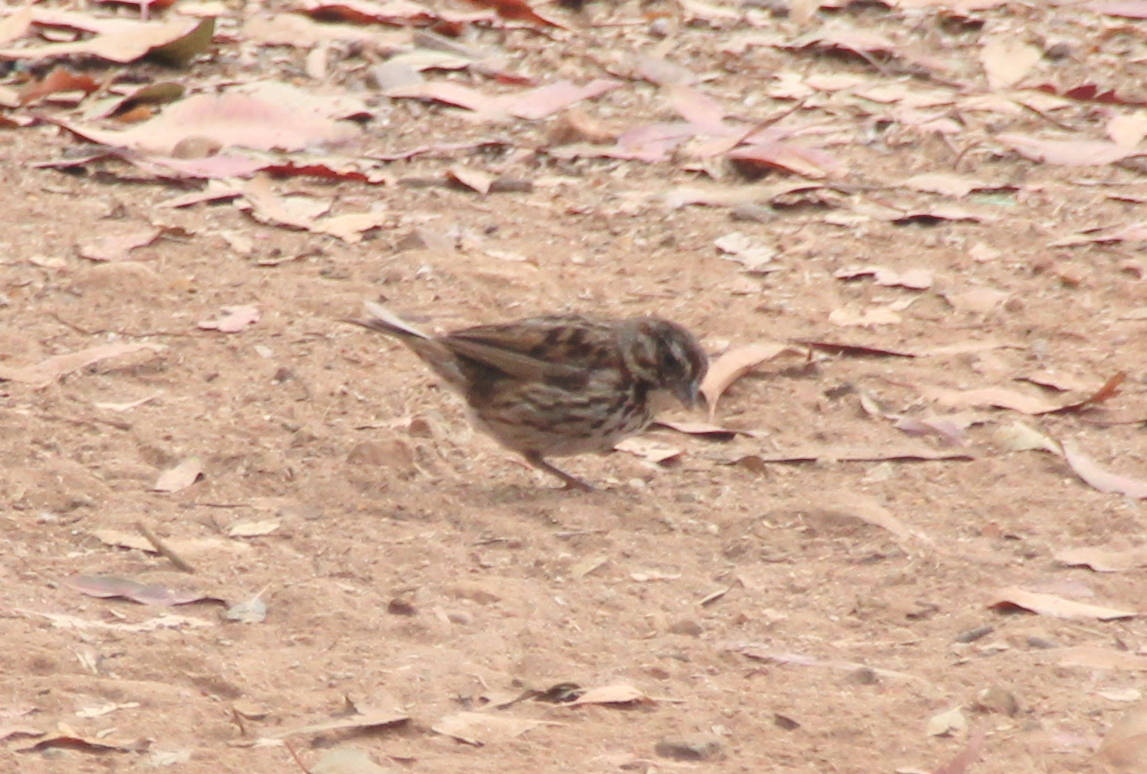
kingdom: Animalia
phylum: Chordata
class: Aves
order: Passeriformes
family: Passerellidae
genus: Melospiza
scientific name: Melospiza melodia
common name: Song sparrow
